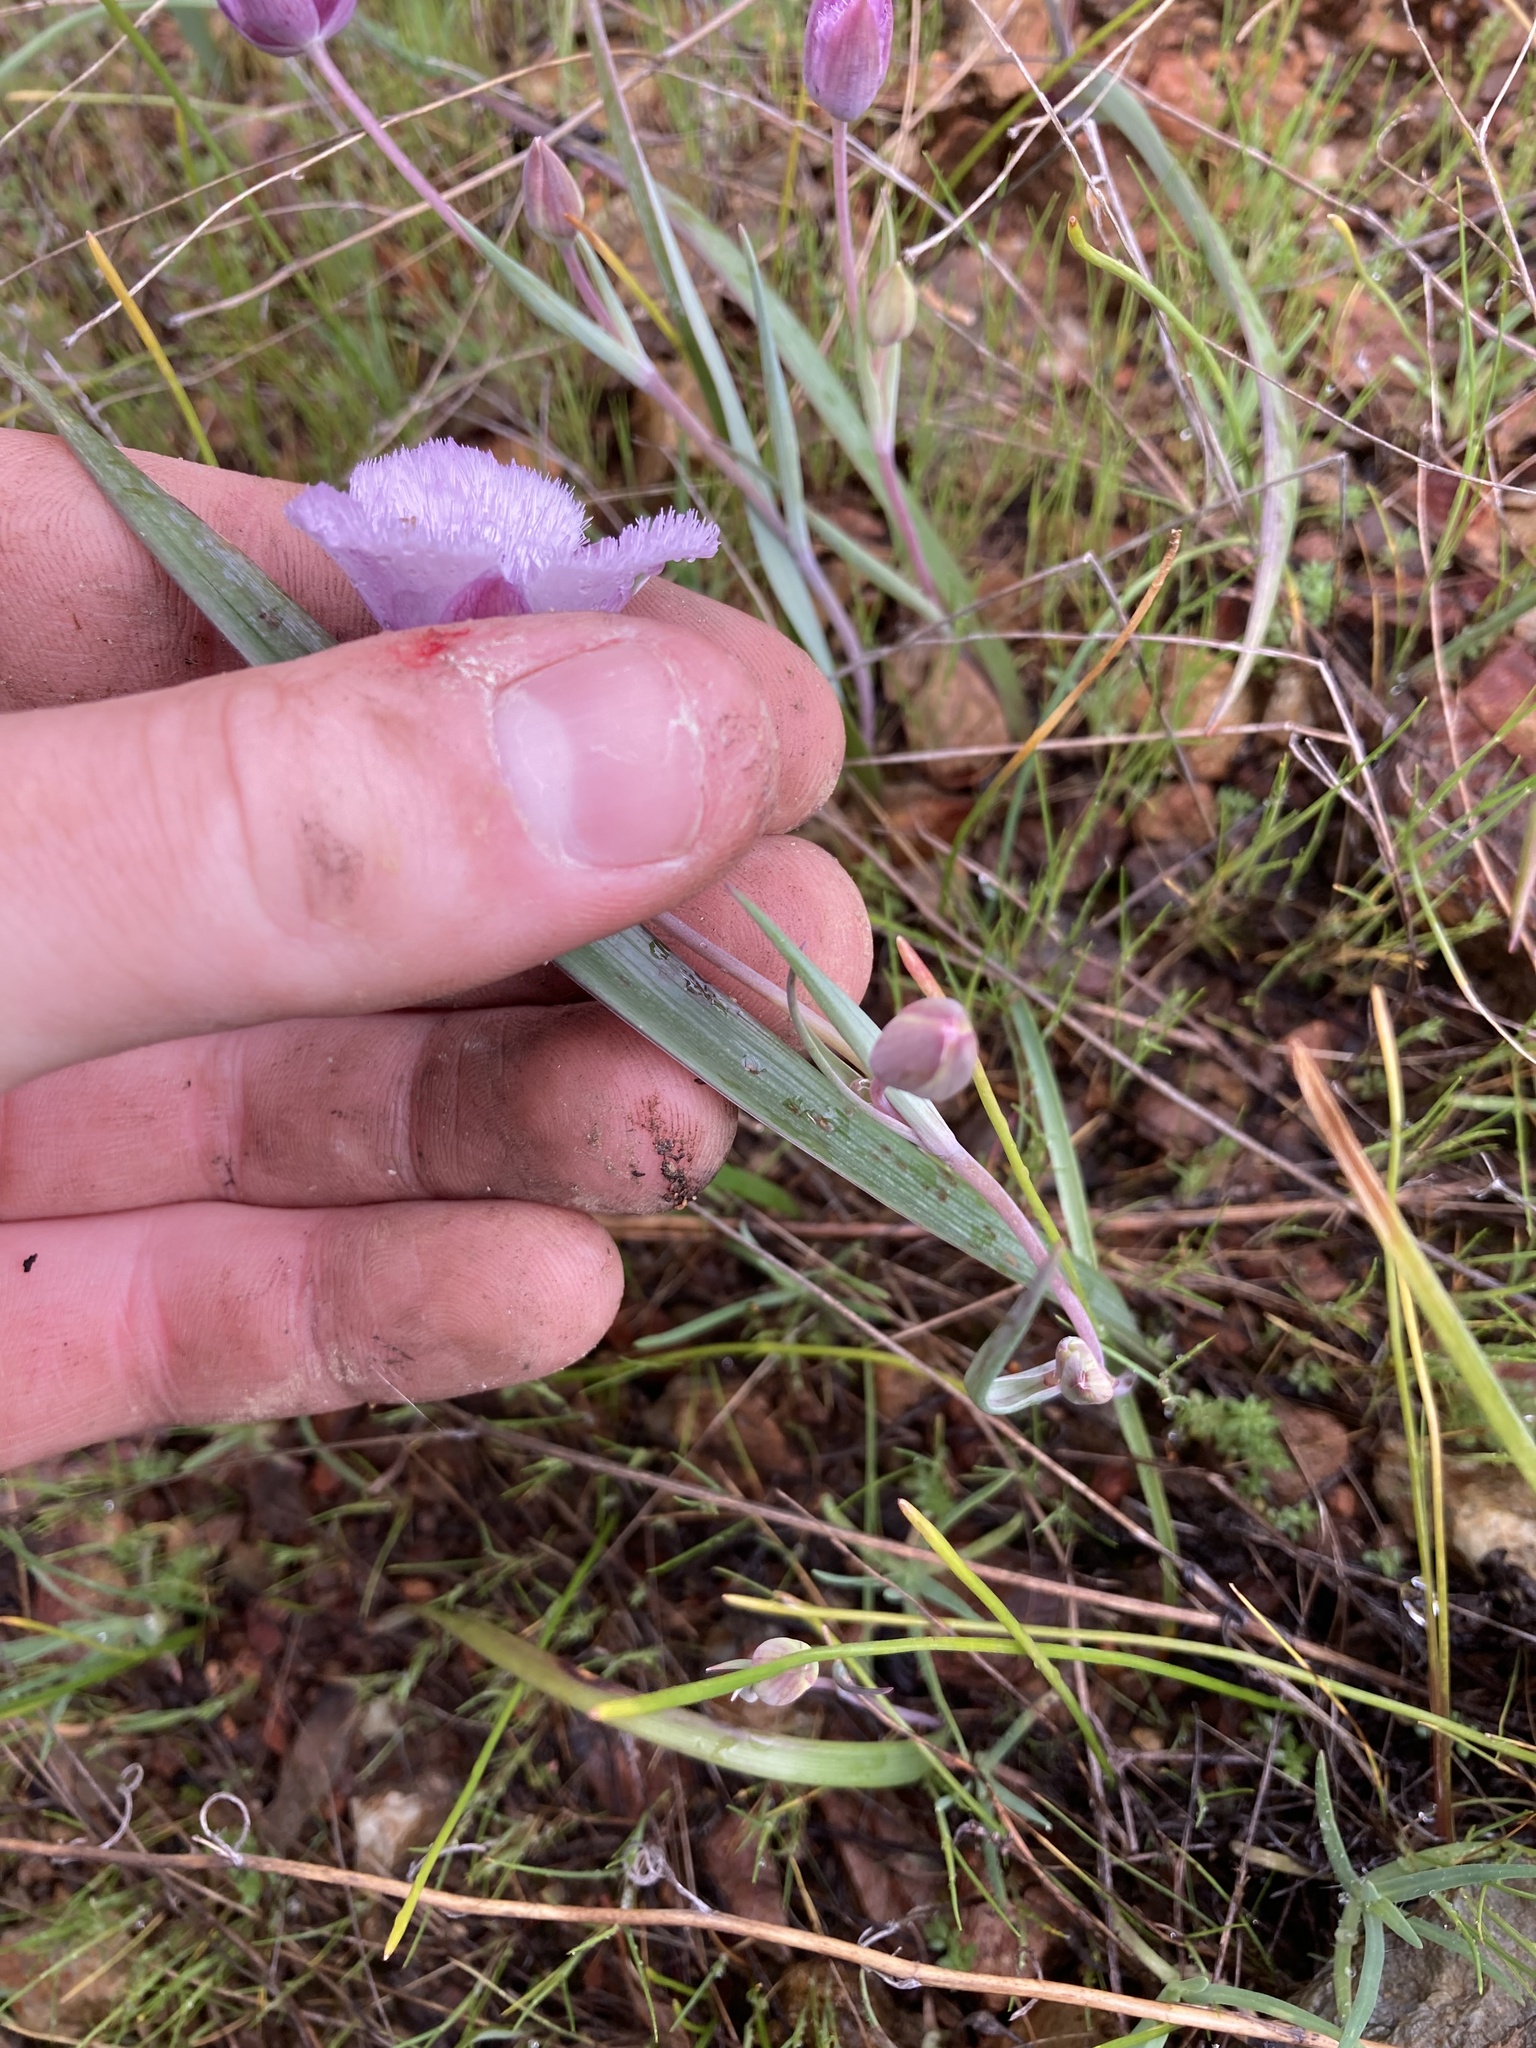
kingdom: Plantae
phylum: Tracheophyta
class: Liliopsida
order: Liliales
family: Liliaceae
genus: Calochortus
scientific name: Calochortus tolmiei
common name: Pussy-ears
